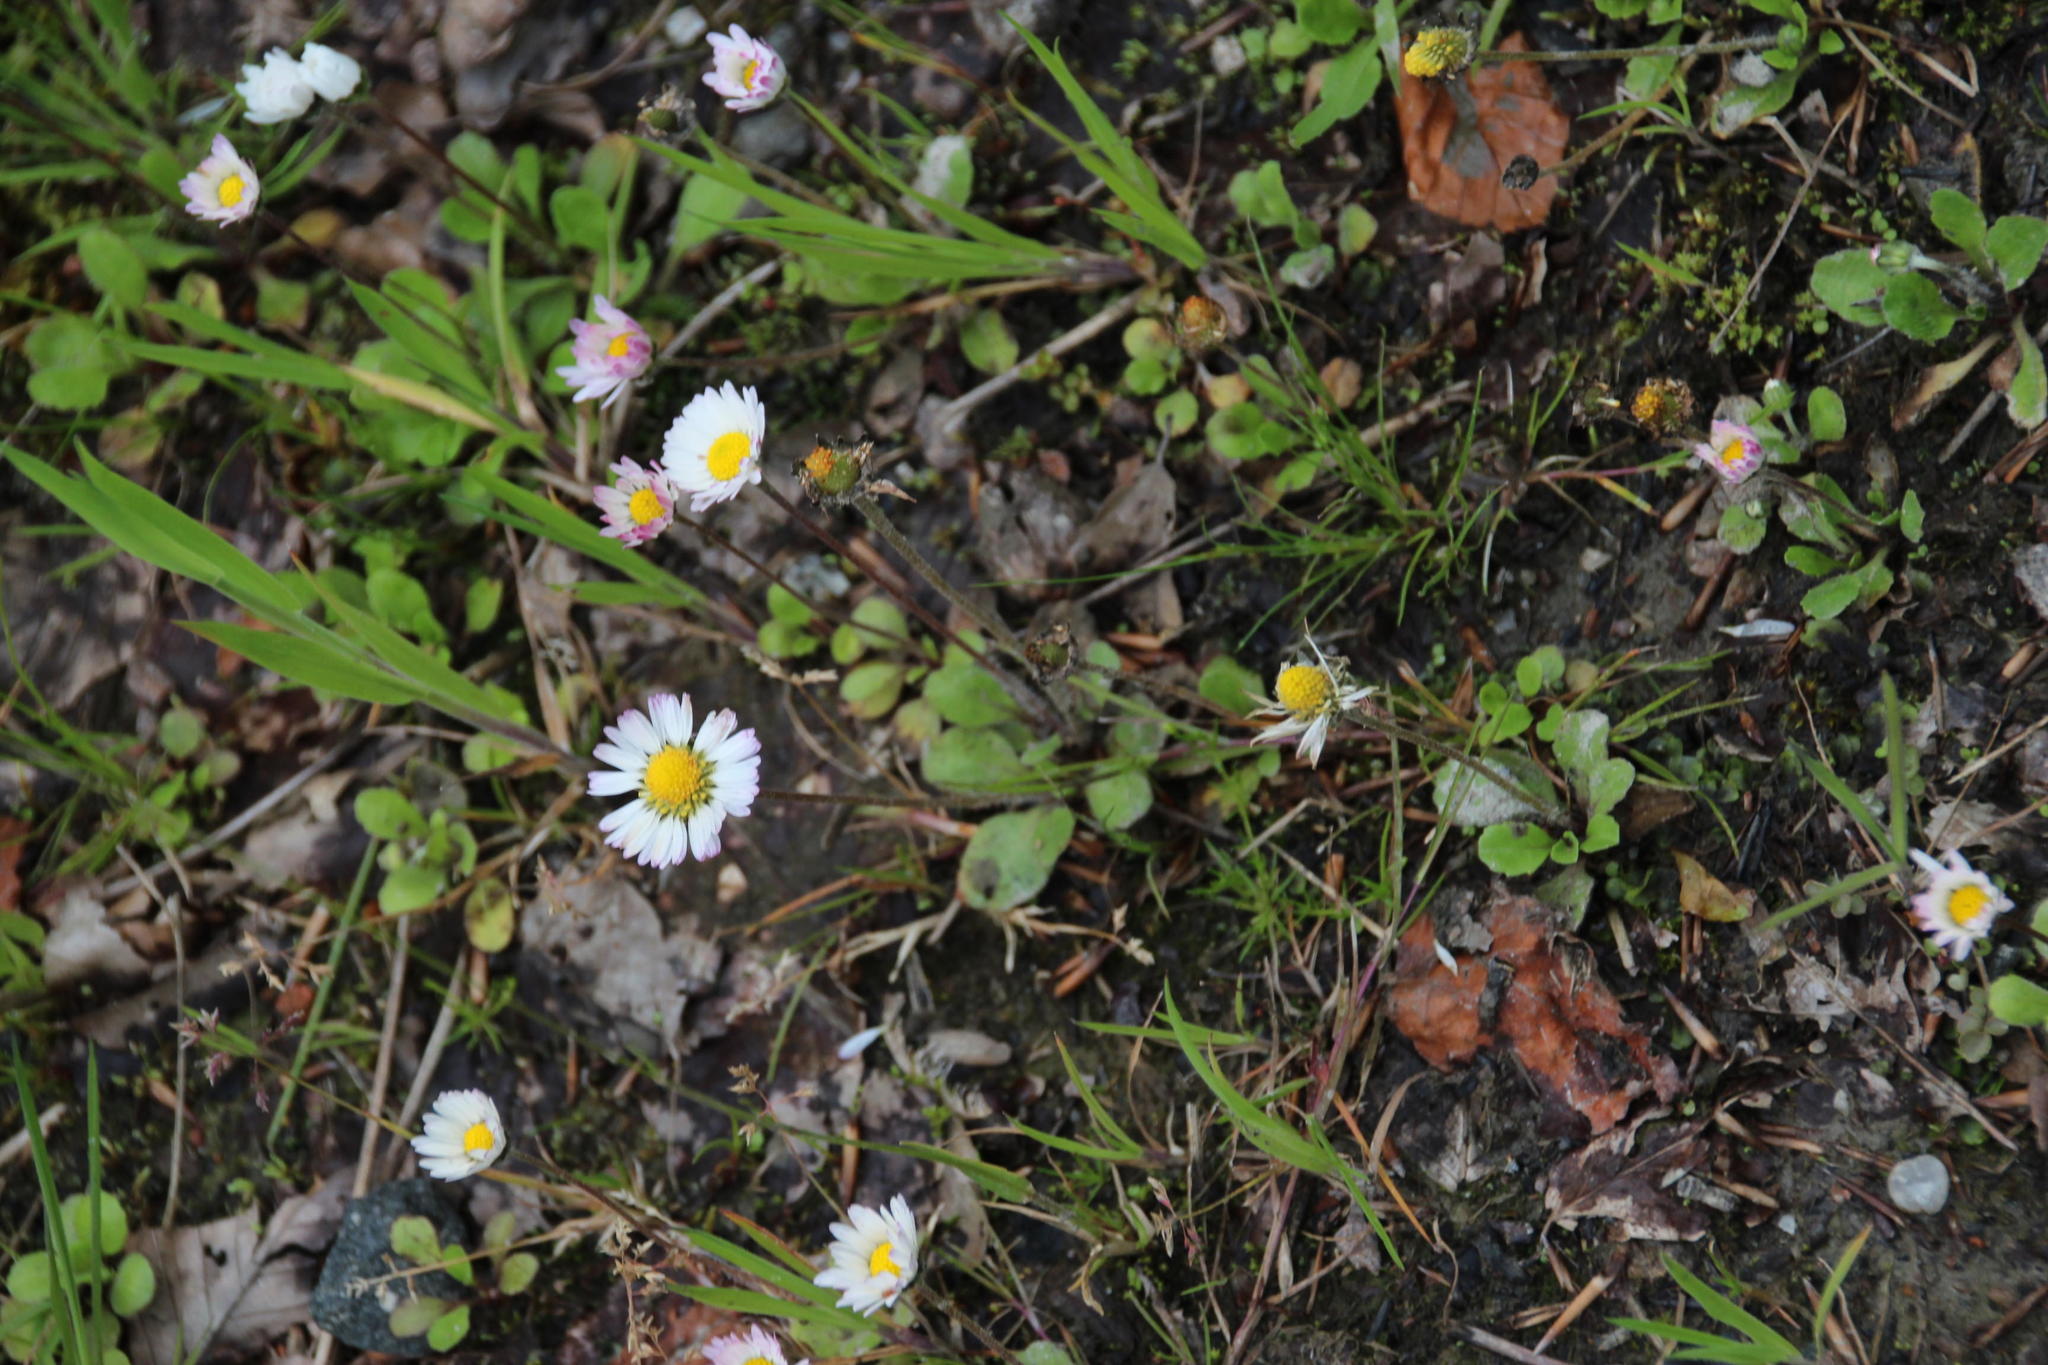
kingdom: Plantae
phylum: Tracheophyta
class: Magnoliopsida
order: Asterales
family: Asteraceae
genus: Bellis
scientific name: Bellis perennis
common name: Lawndaisy
